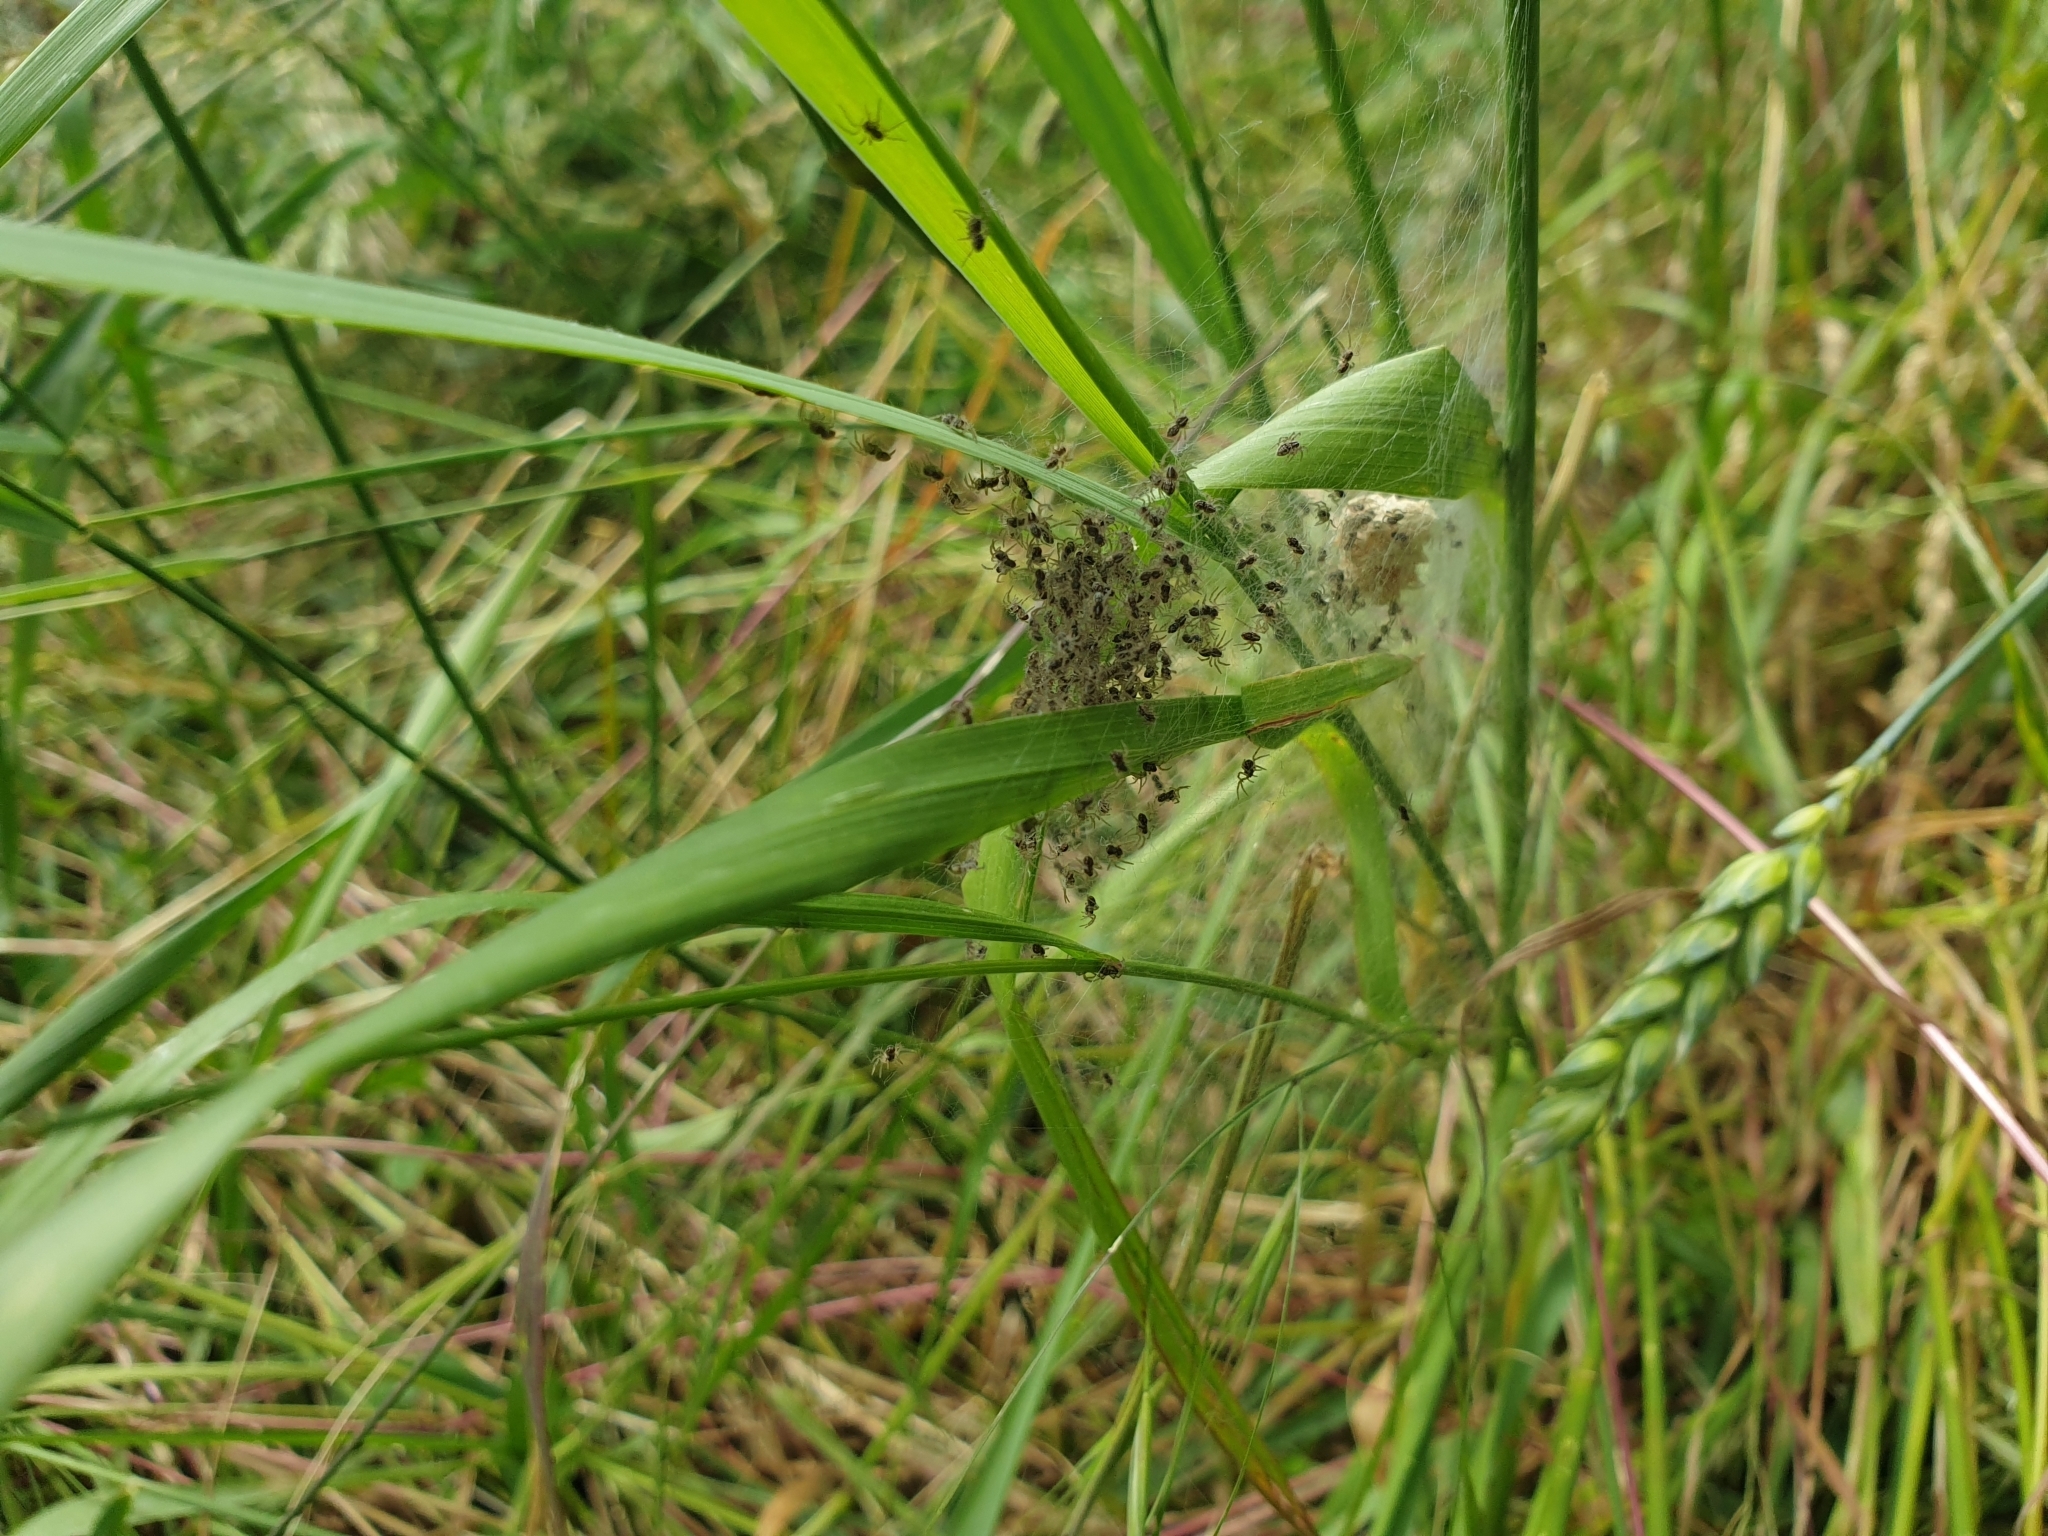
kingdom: Animalia
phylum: Arthropoda
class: Arachnida
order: Araneae
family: Pisauridae
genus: Pisaura
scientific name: Pisaura mirabilis
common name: Tent spider
